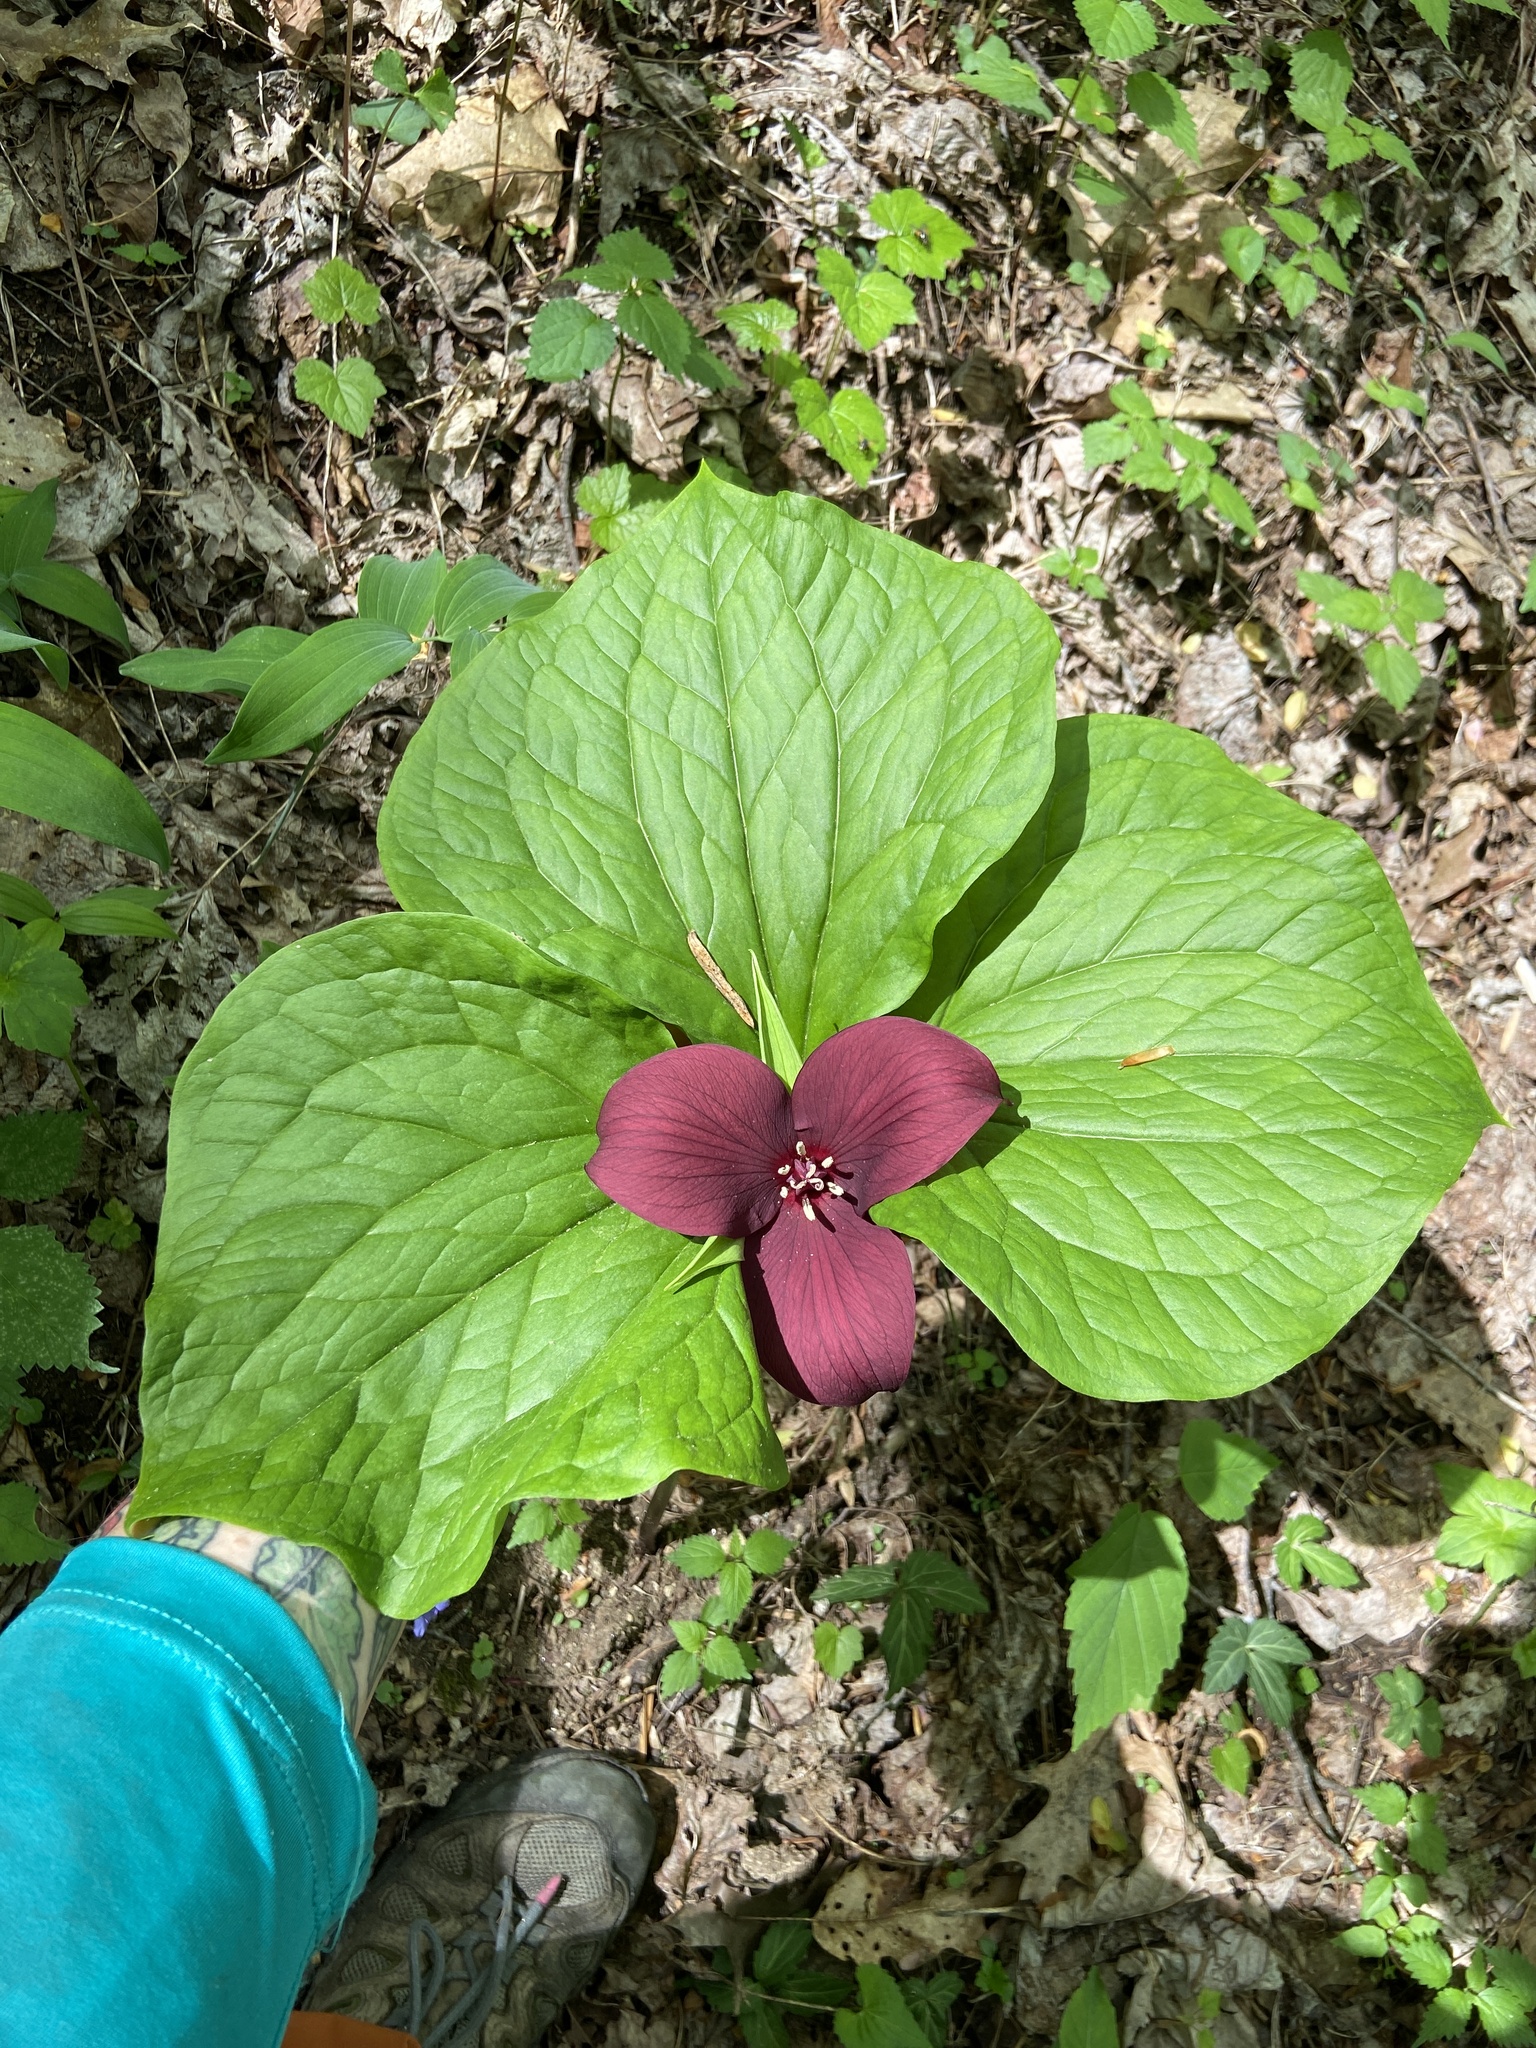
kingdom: Plantae
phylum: Tracheophyta
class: Liliopsida
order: Liliales
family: Melanthiaceae
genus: Trillium
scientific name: Trillium vaseyi
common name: Sweet trillium
